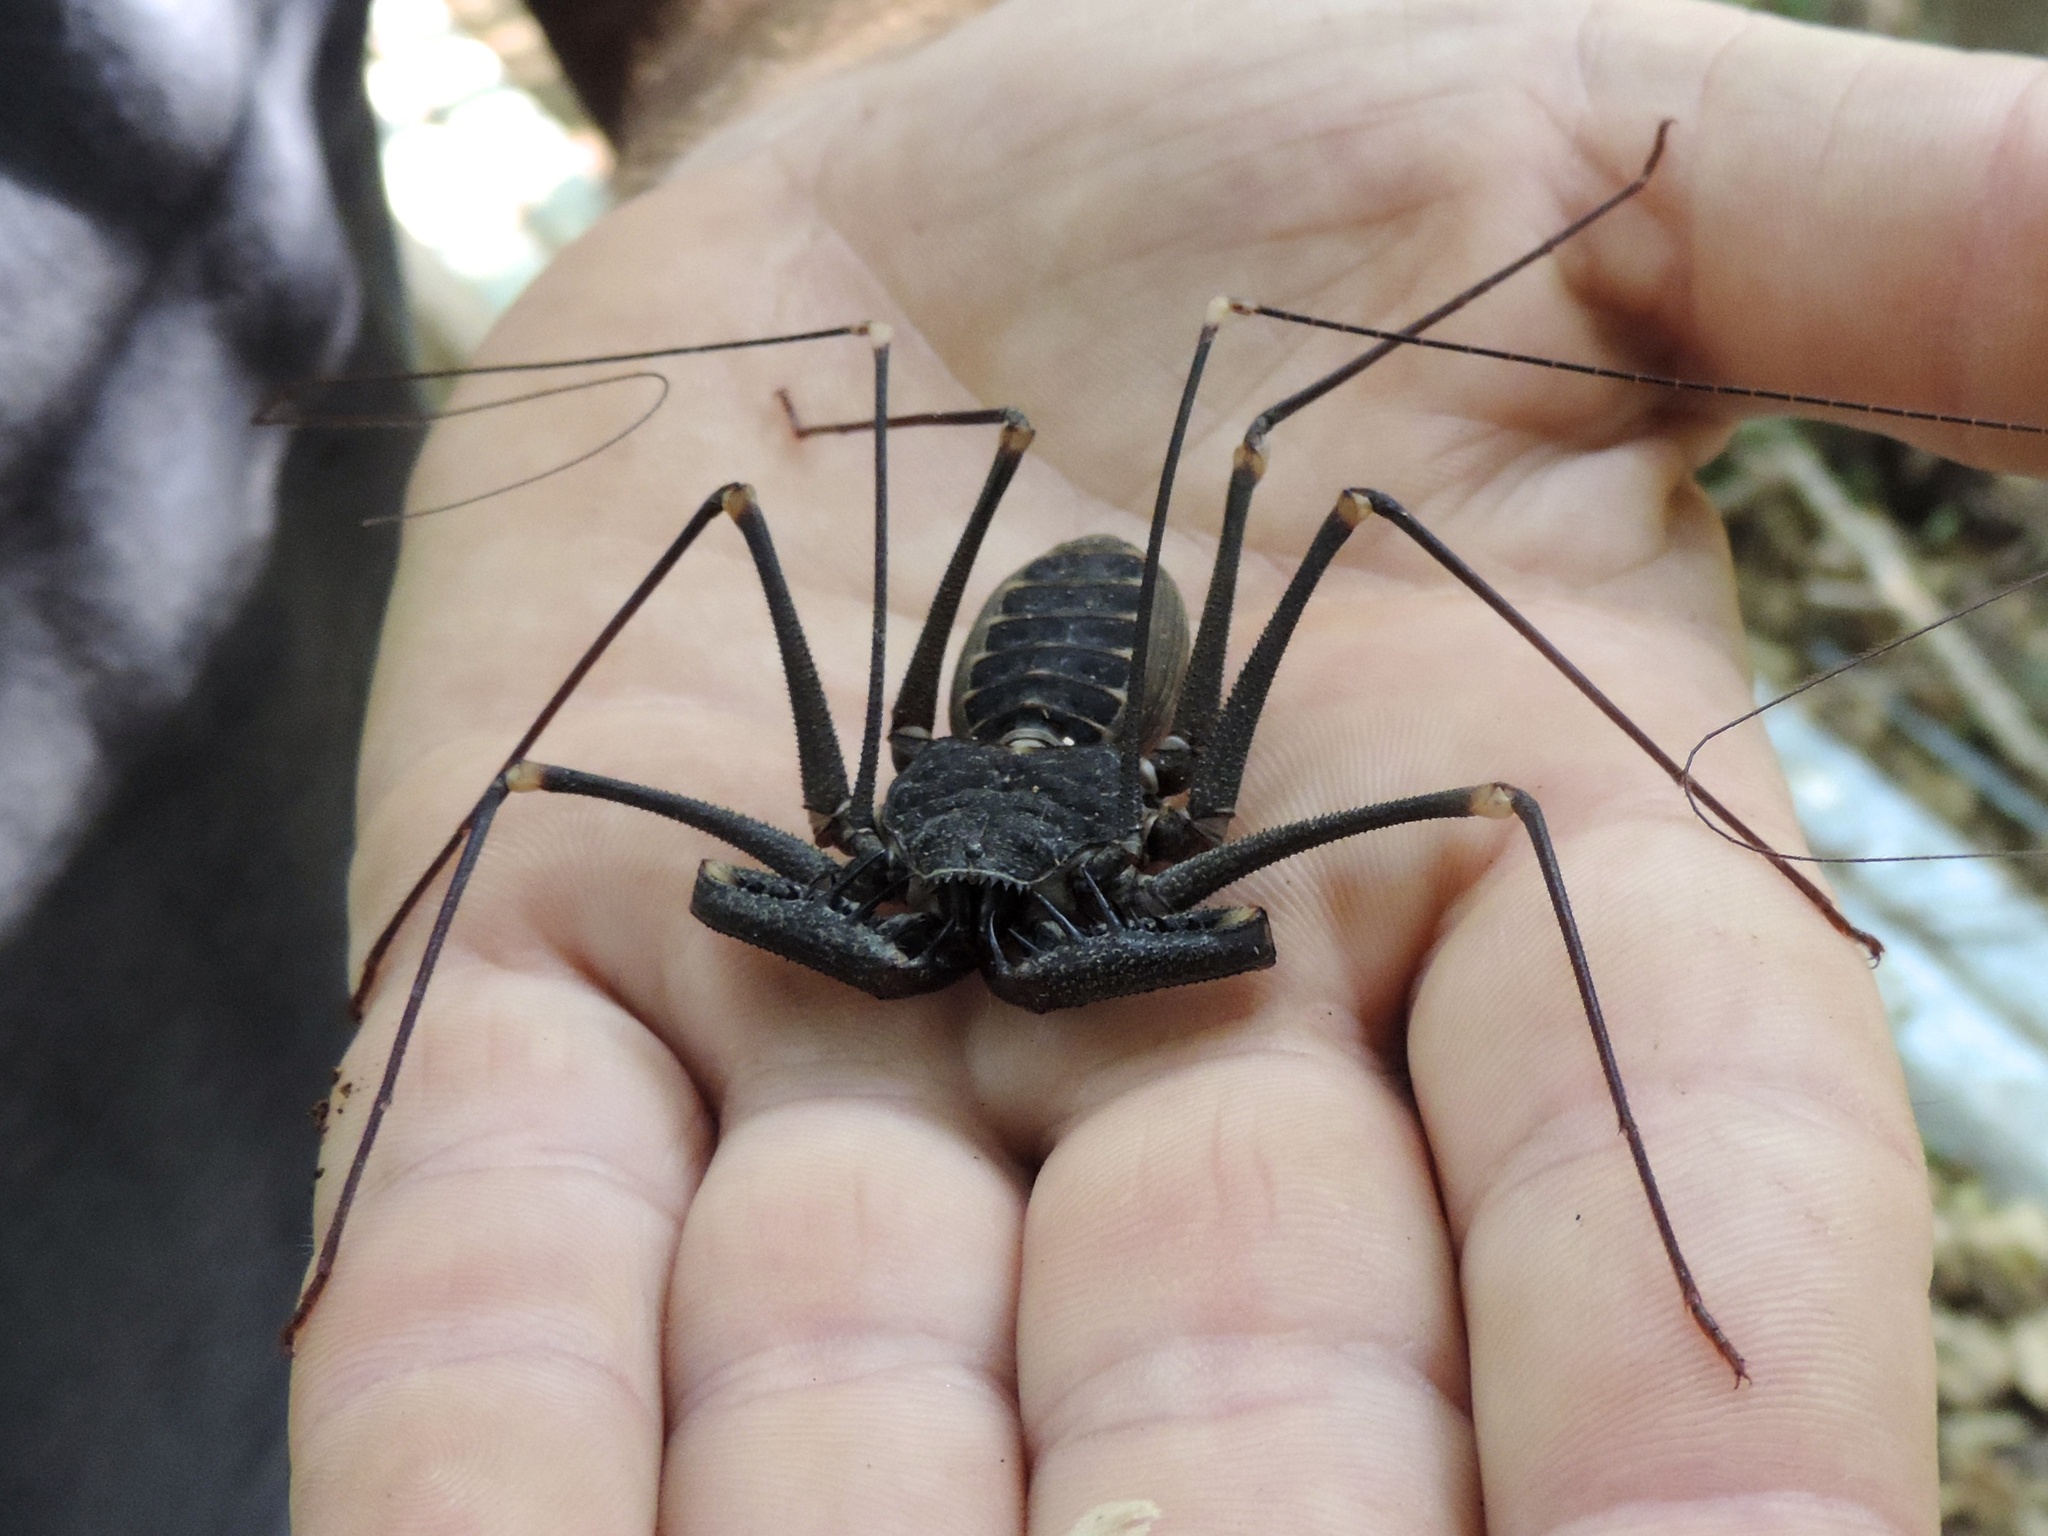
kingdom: Animalia
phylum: Arthropoda
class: Arachnida
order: Amblypygi
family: Phrynidae
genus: Acanthophrynus
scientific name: Acanthophrynus coronatus
